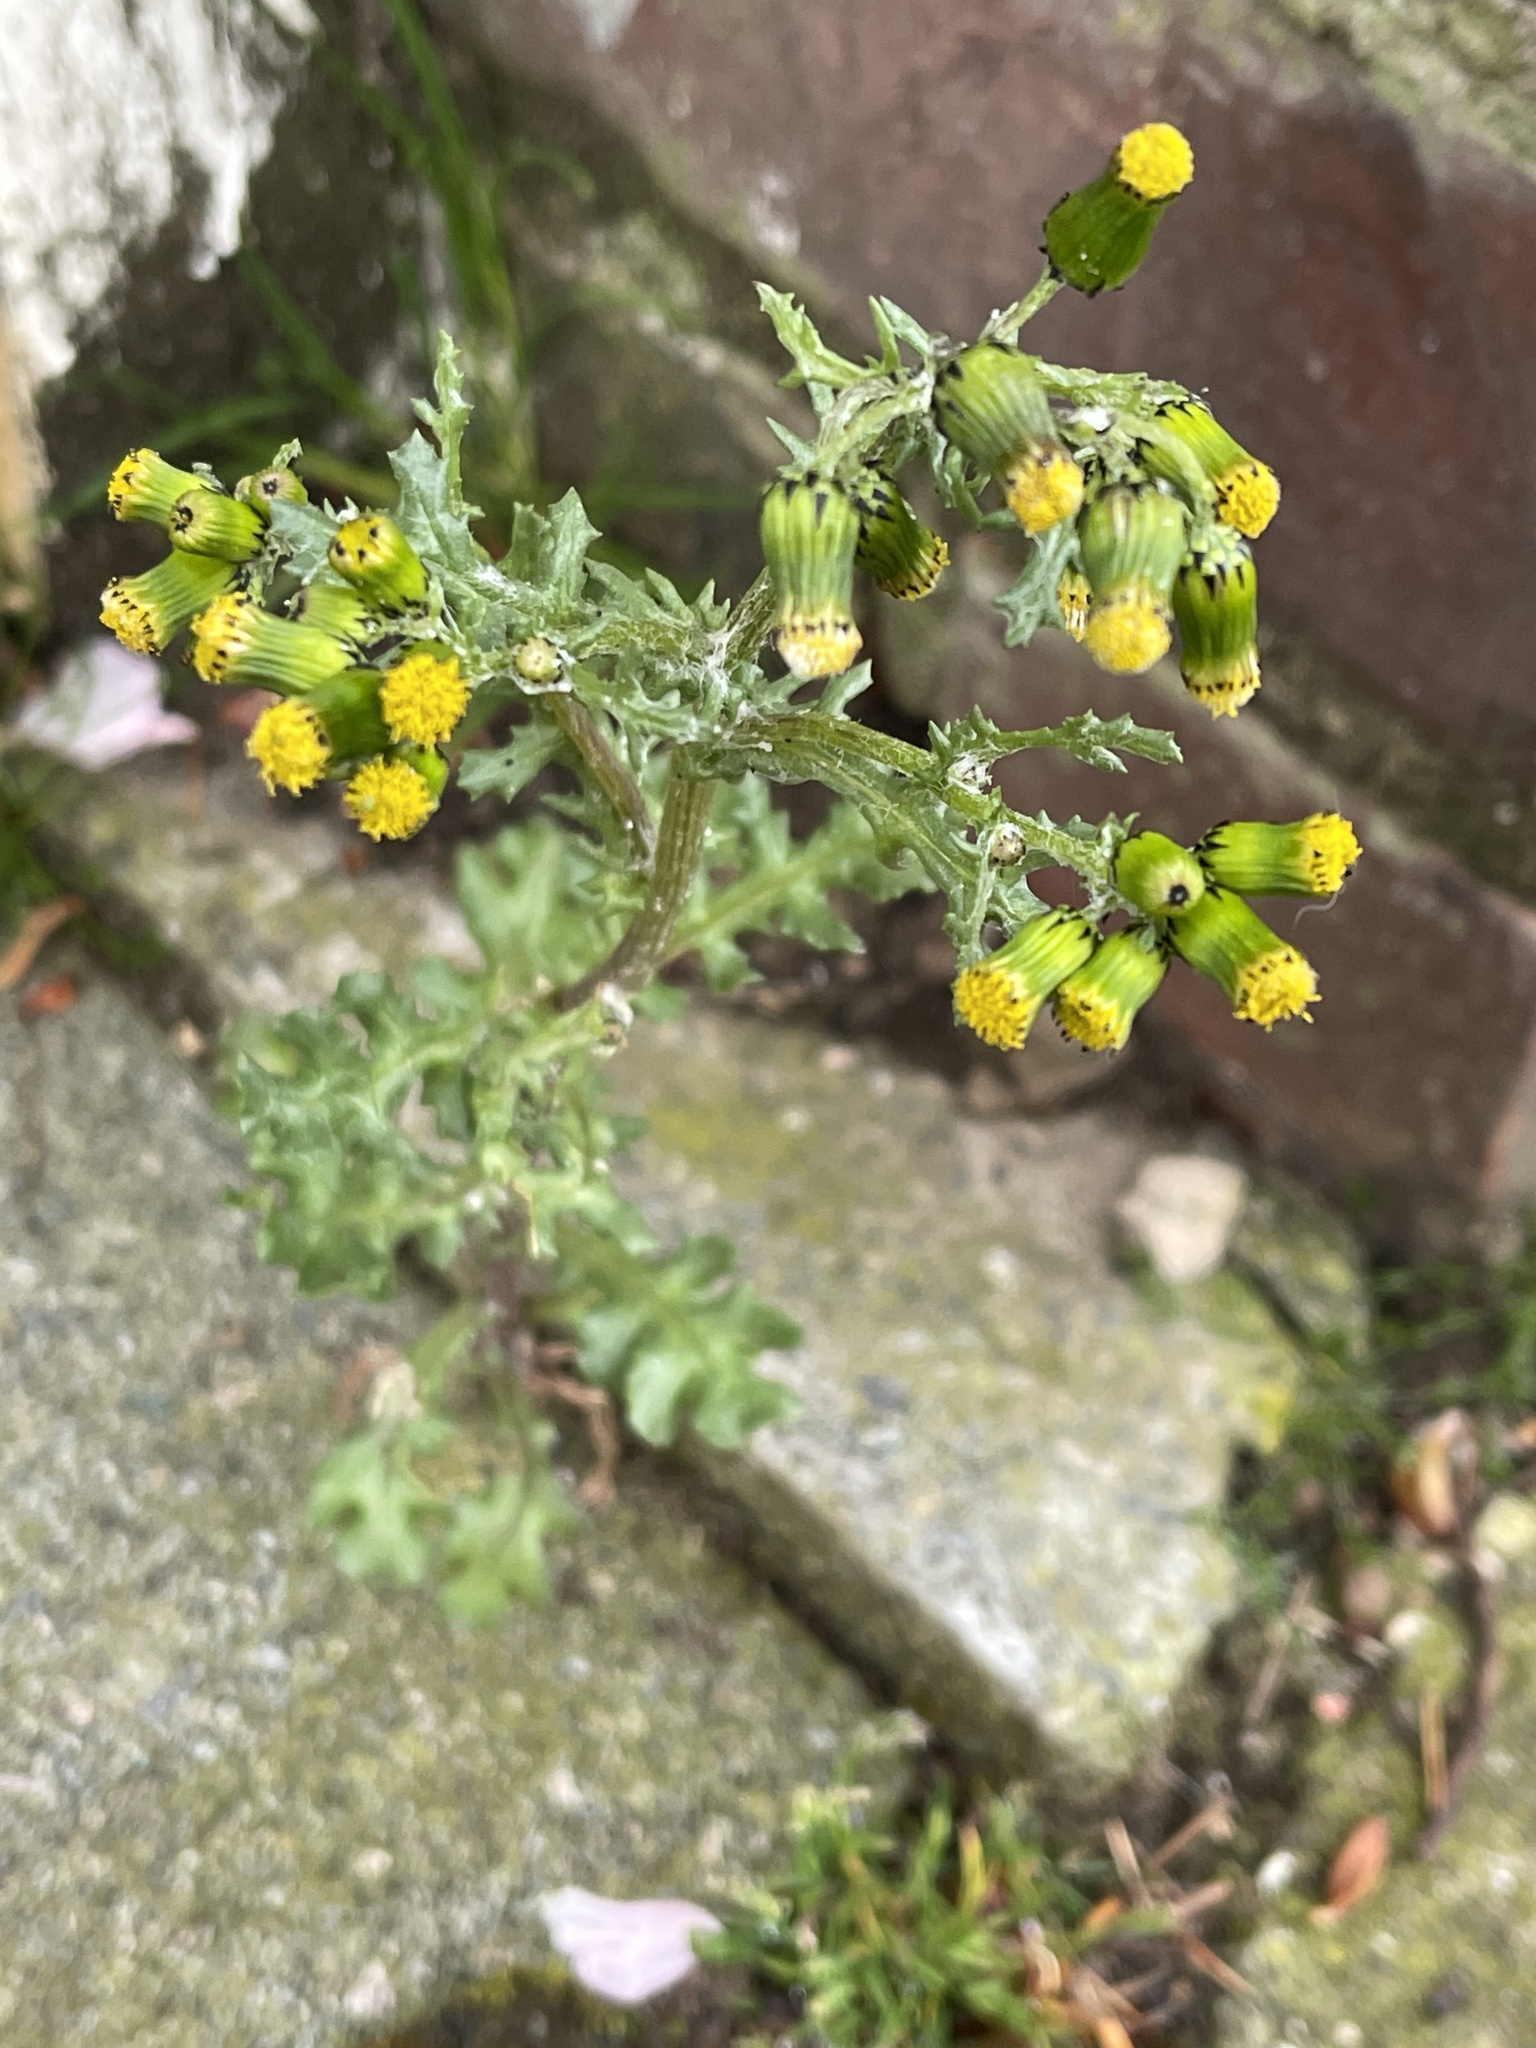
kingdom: Plantae
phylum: Tracheophyta
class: Magnoliopsida
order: Asterales
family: Asteraceae
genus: Senecio
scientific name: Senecio vulgaris
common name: Old-man-in-the-spring
